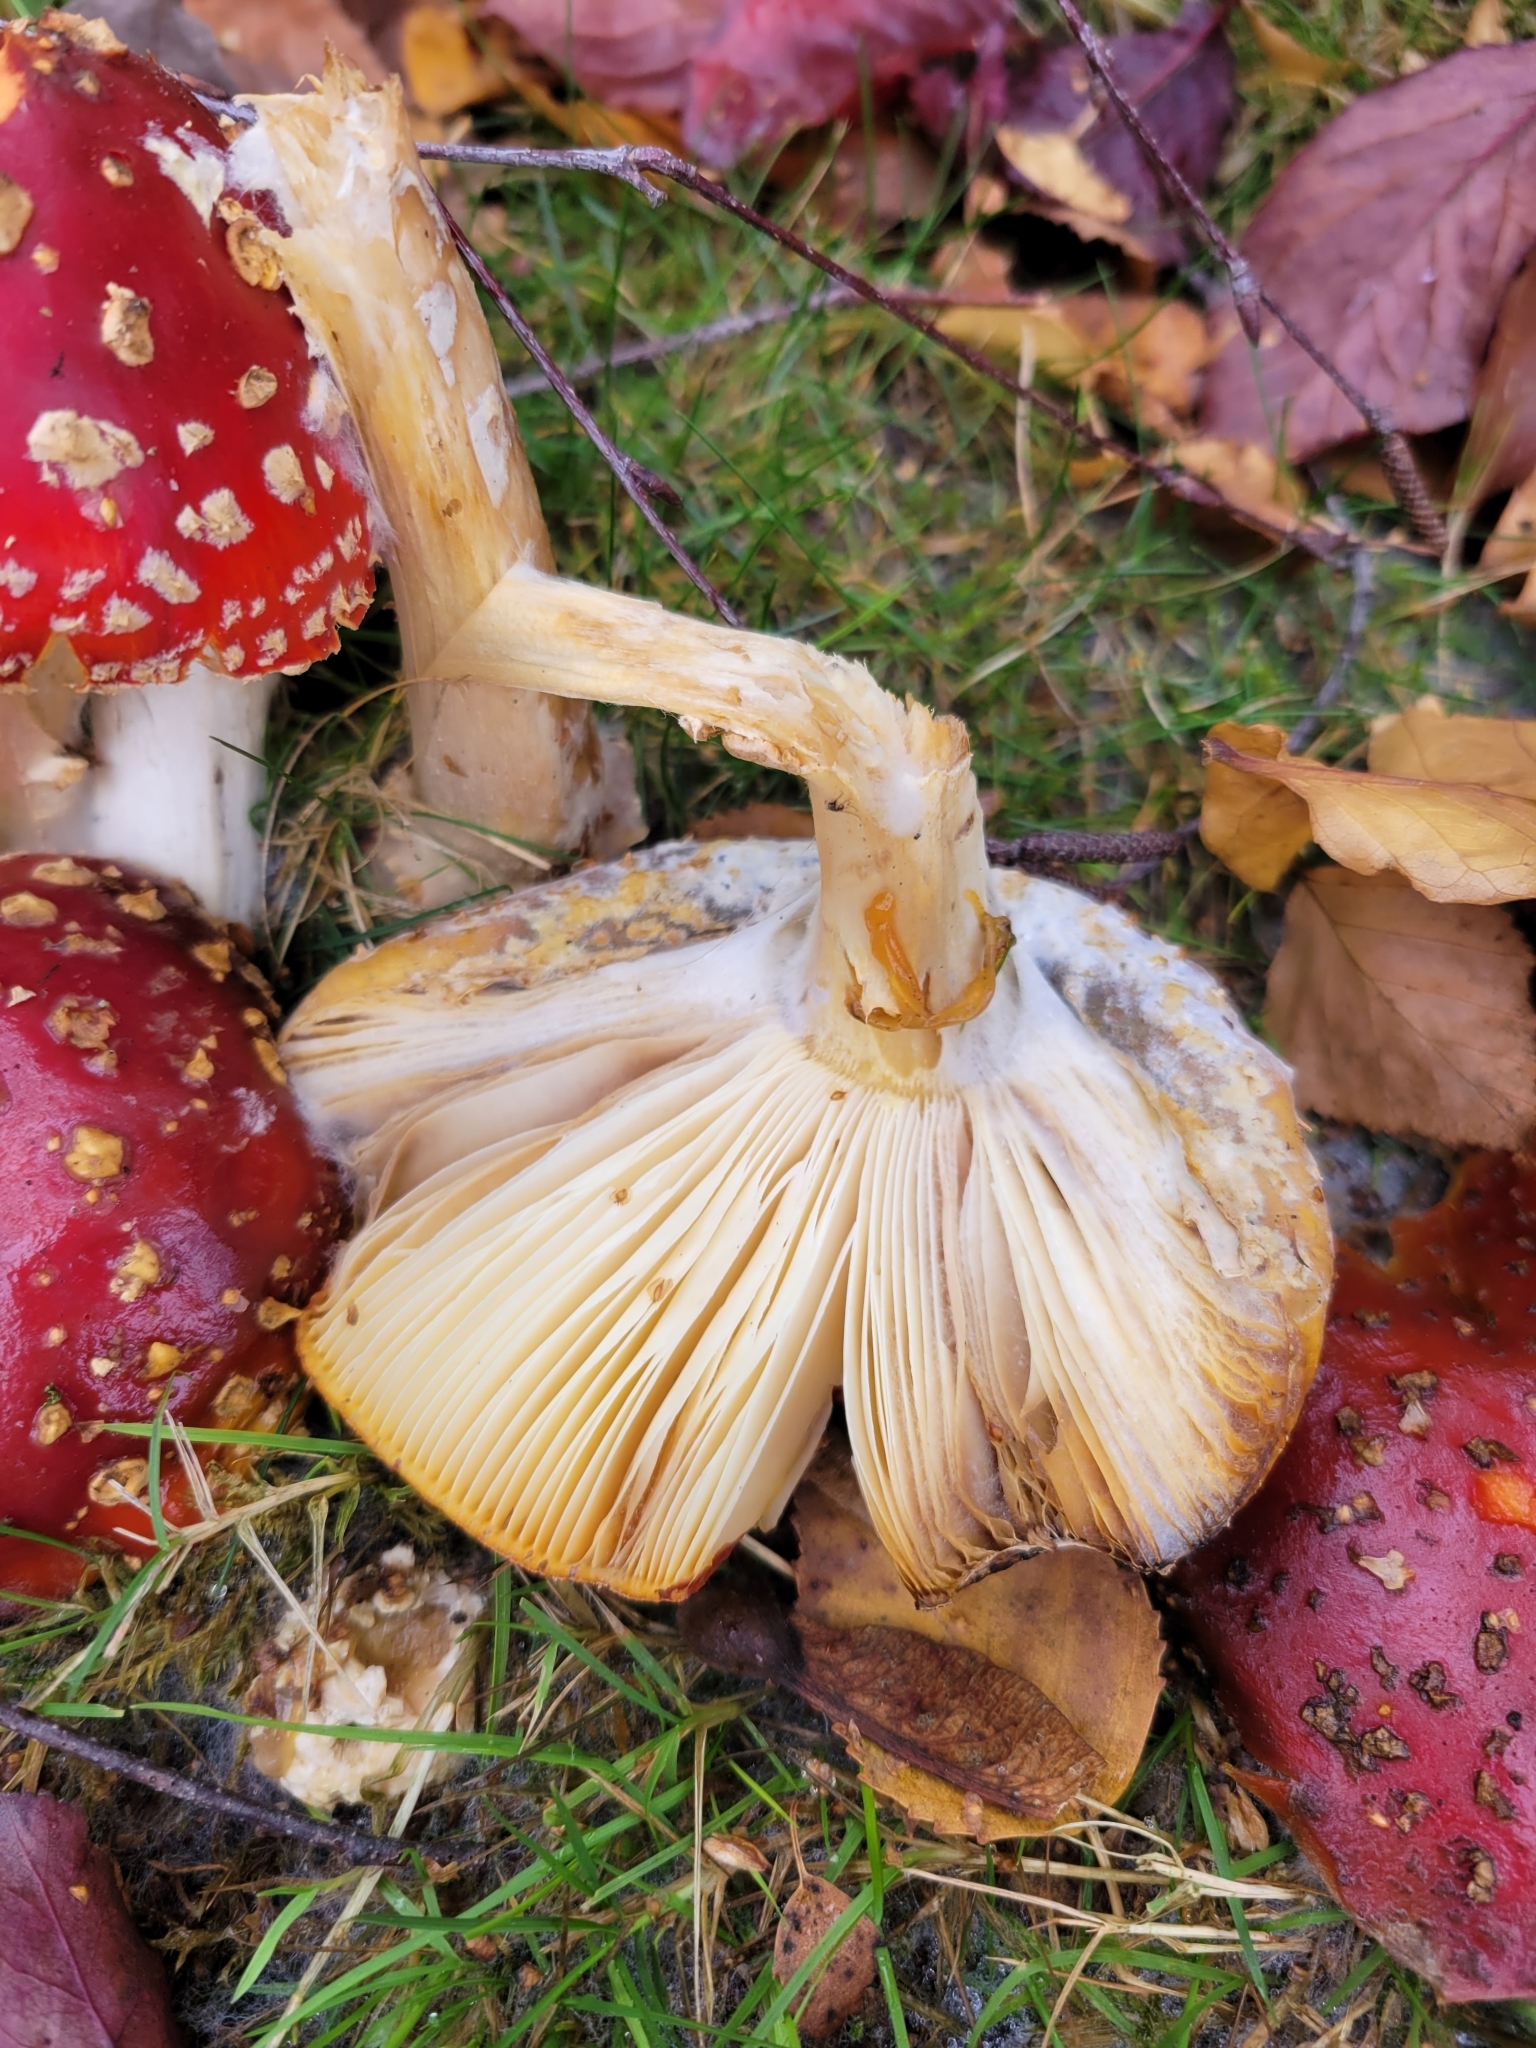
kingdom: Fungi
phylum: Basidiomycota
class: Agaricomycetes
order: Agaricales
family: Amanitaceae
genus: Amanita
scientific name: Amanita muscaria
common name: Fly agaric
